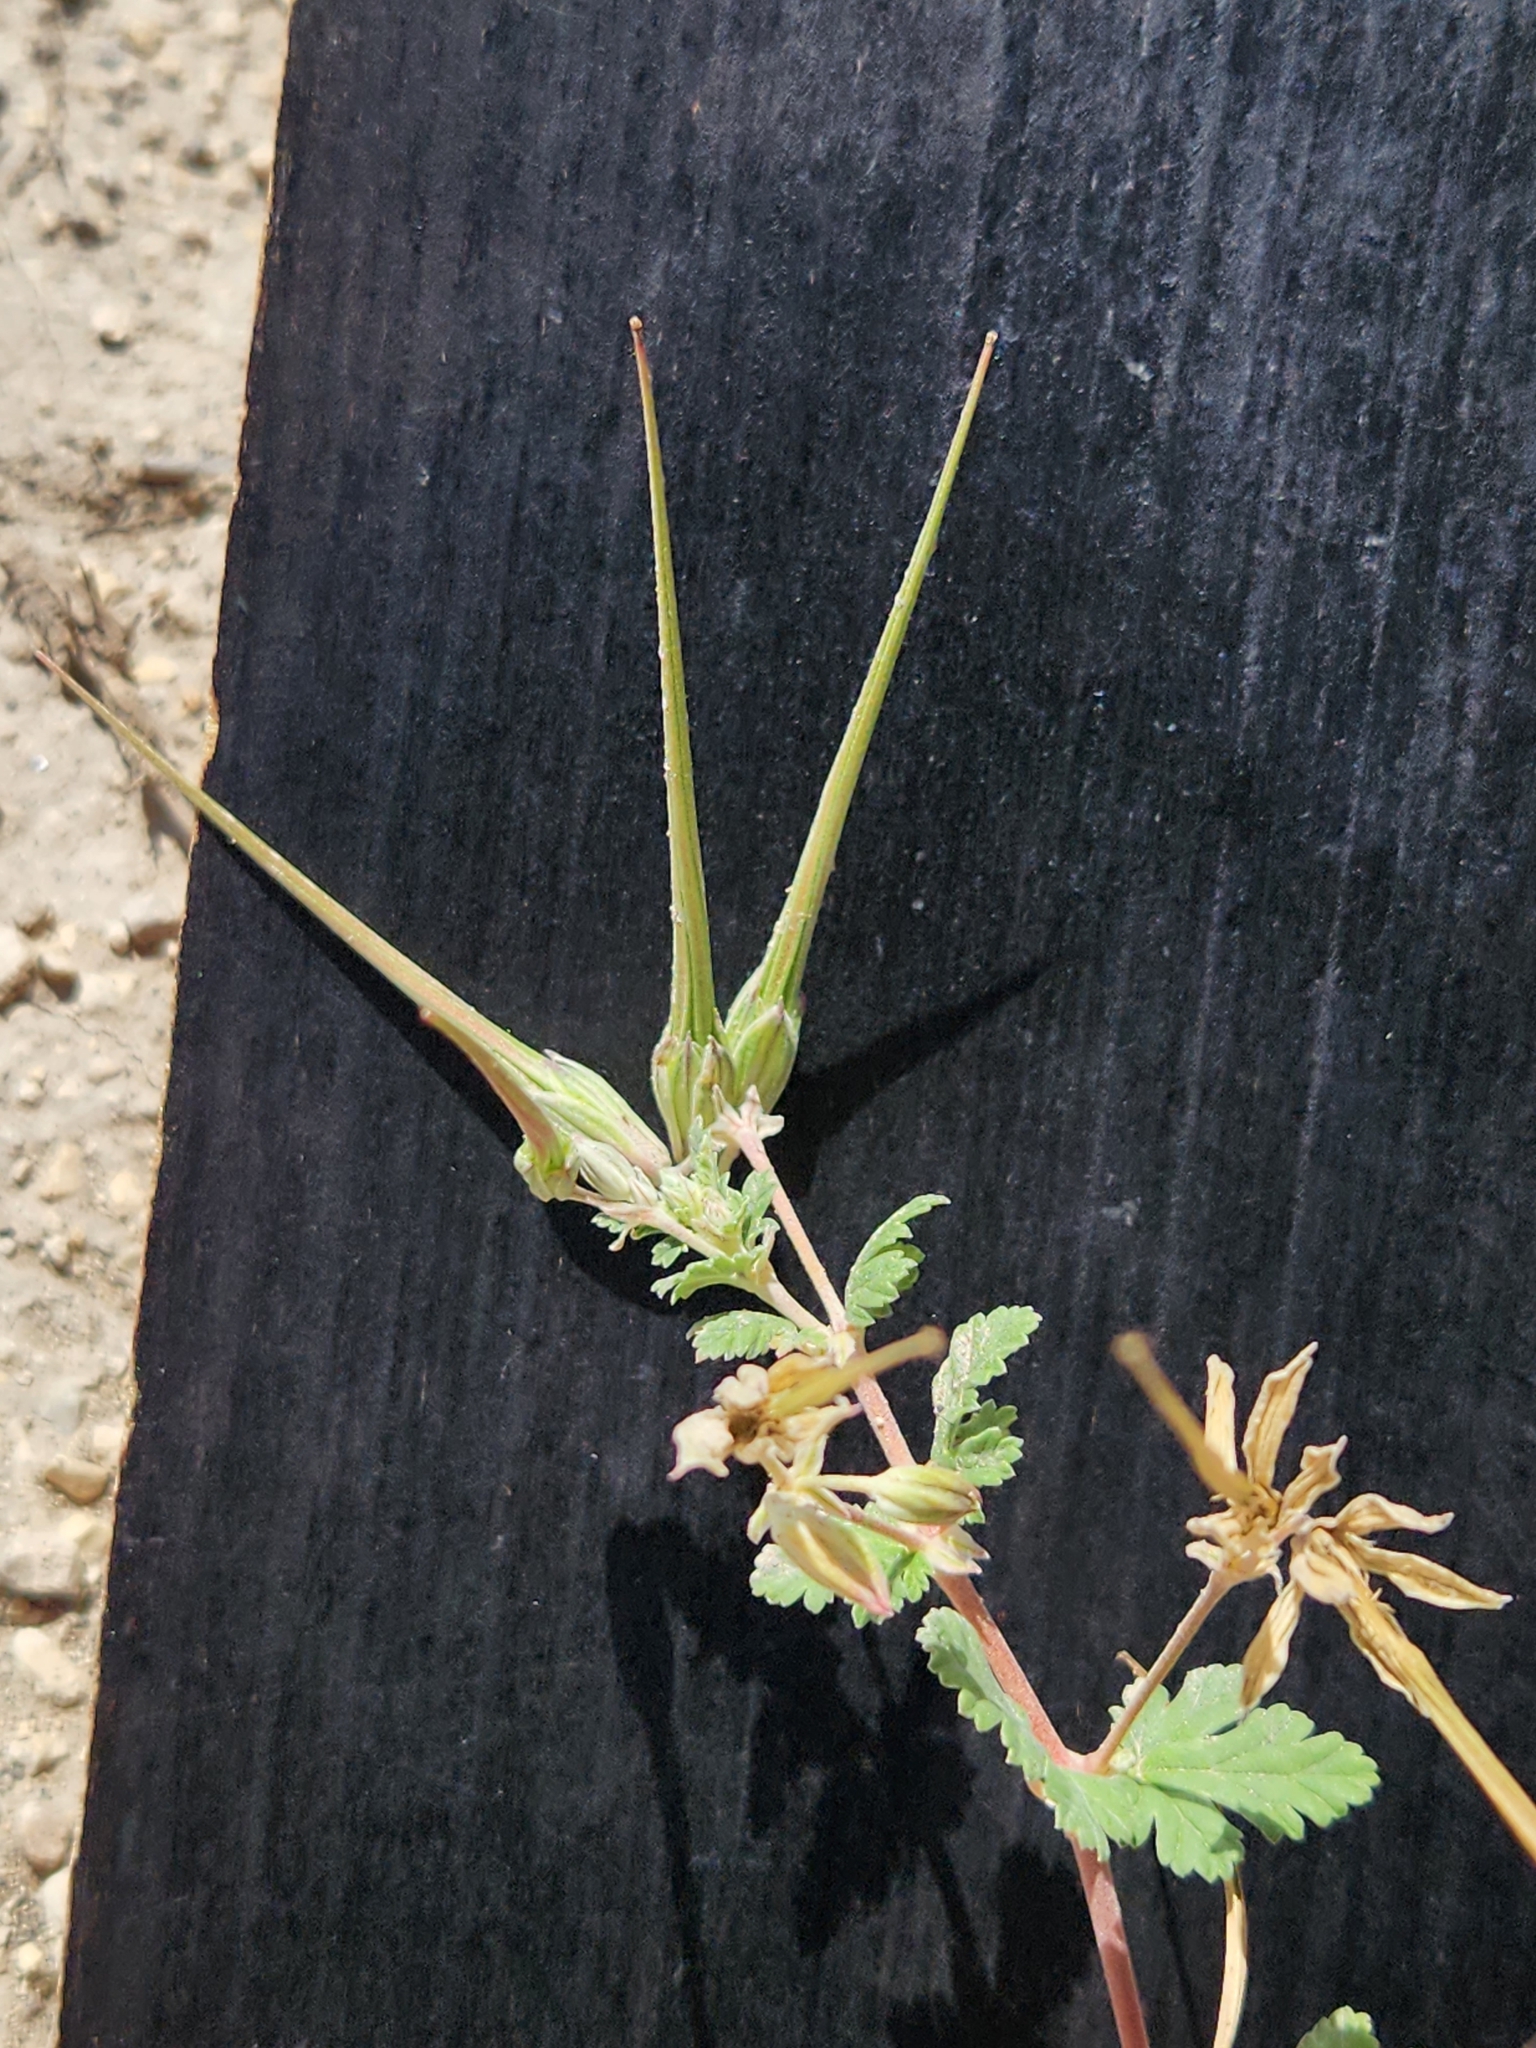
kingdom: Plantae
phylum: Tracheophyta
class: Magnoliopsida
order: Geraniales
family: Geraniaceae
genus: Erodium
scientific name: Erodium texanum
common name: Texas stork's-bill
